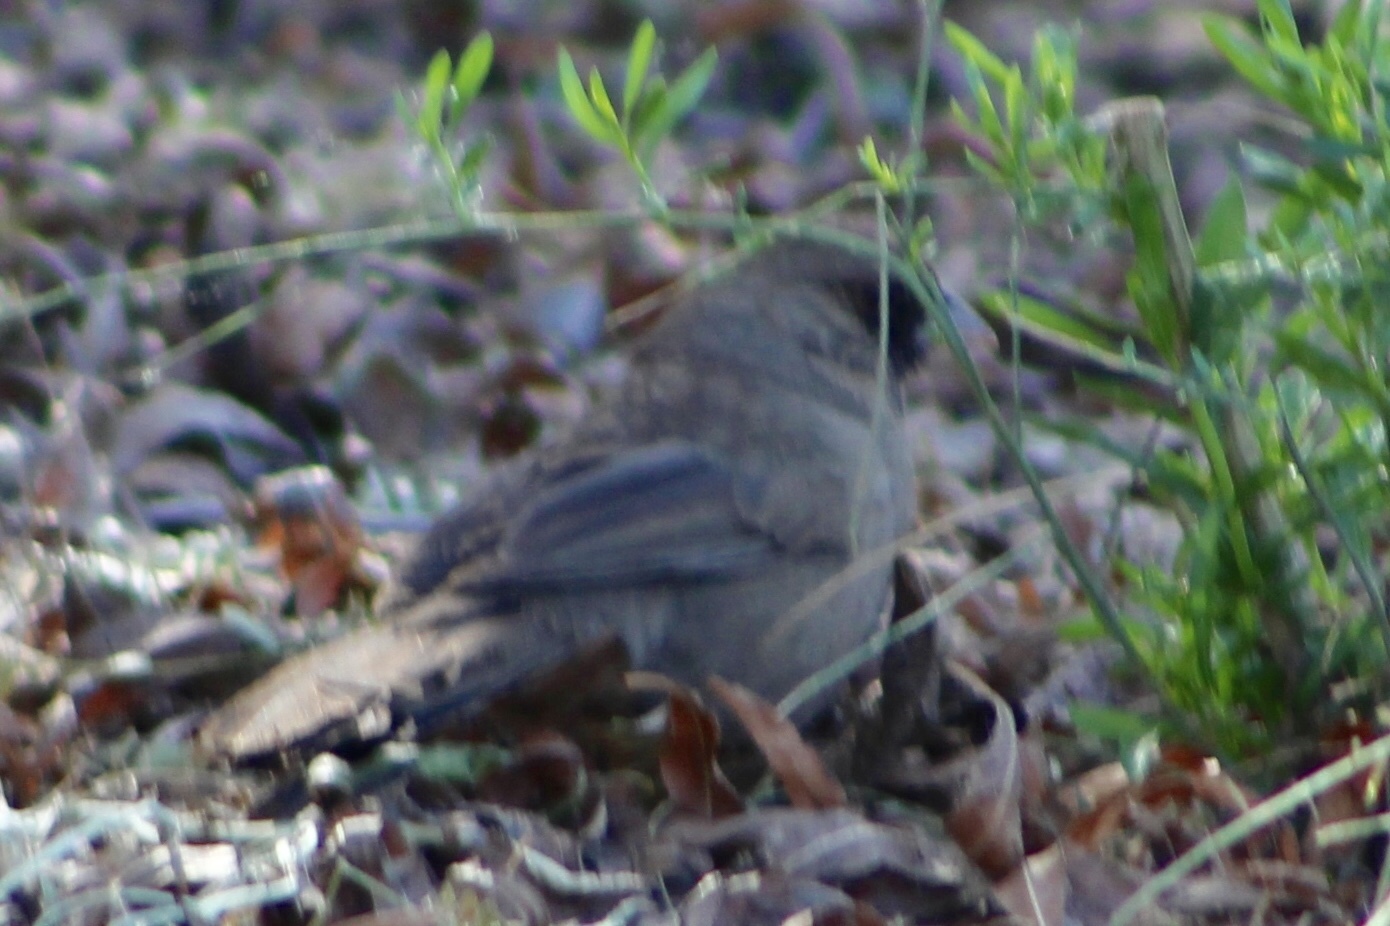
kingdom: Animalia
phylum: Chordata
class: Aves
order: Passeriformes
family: Passerellidae
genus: Melozone
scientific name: Melozone aberti
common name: Abert's towhee
